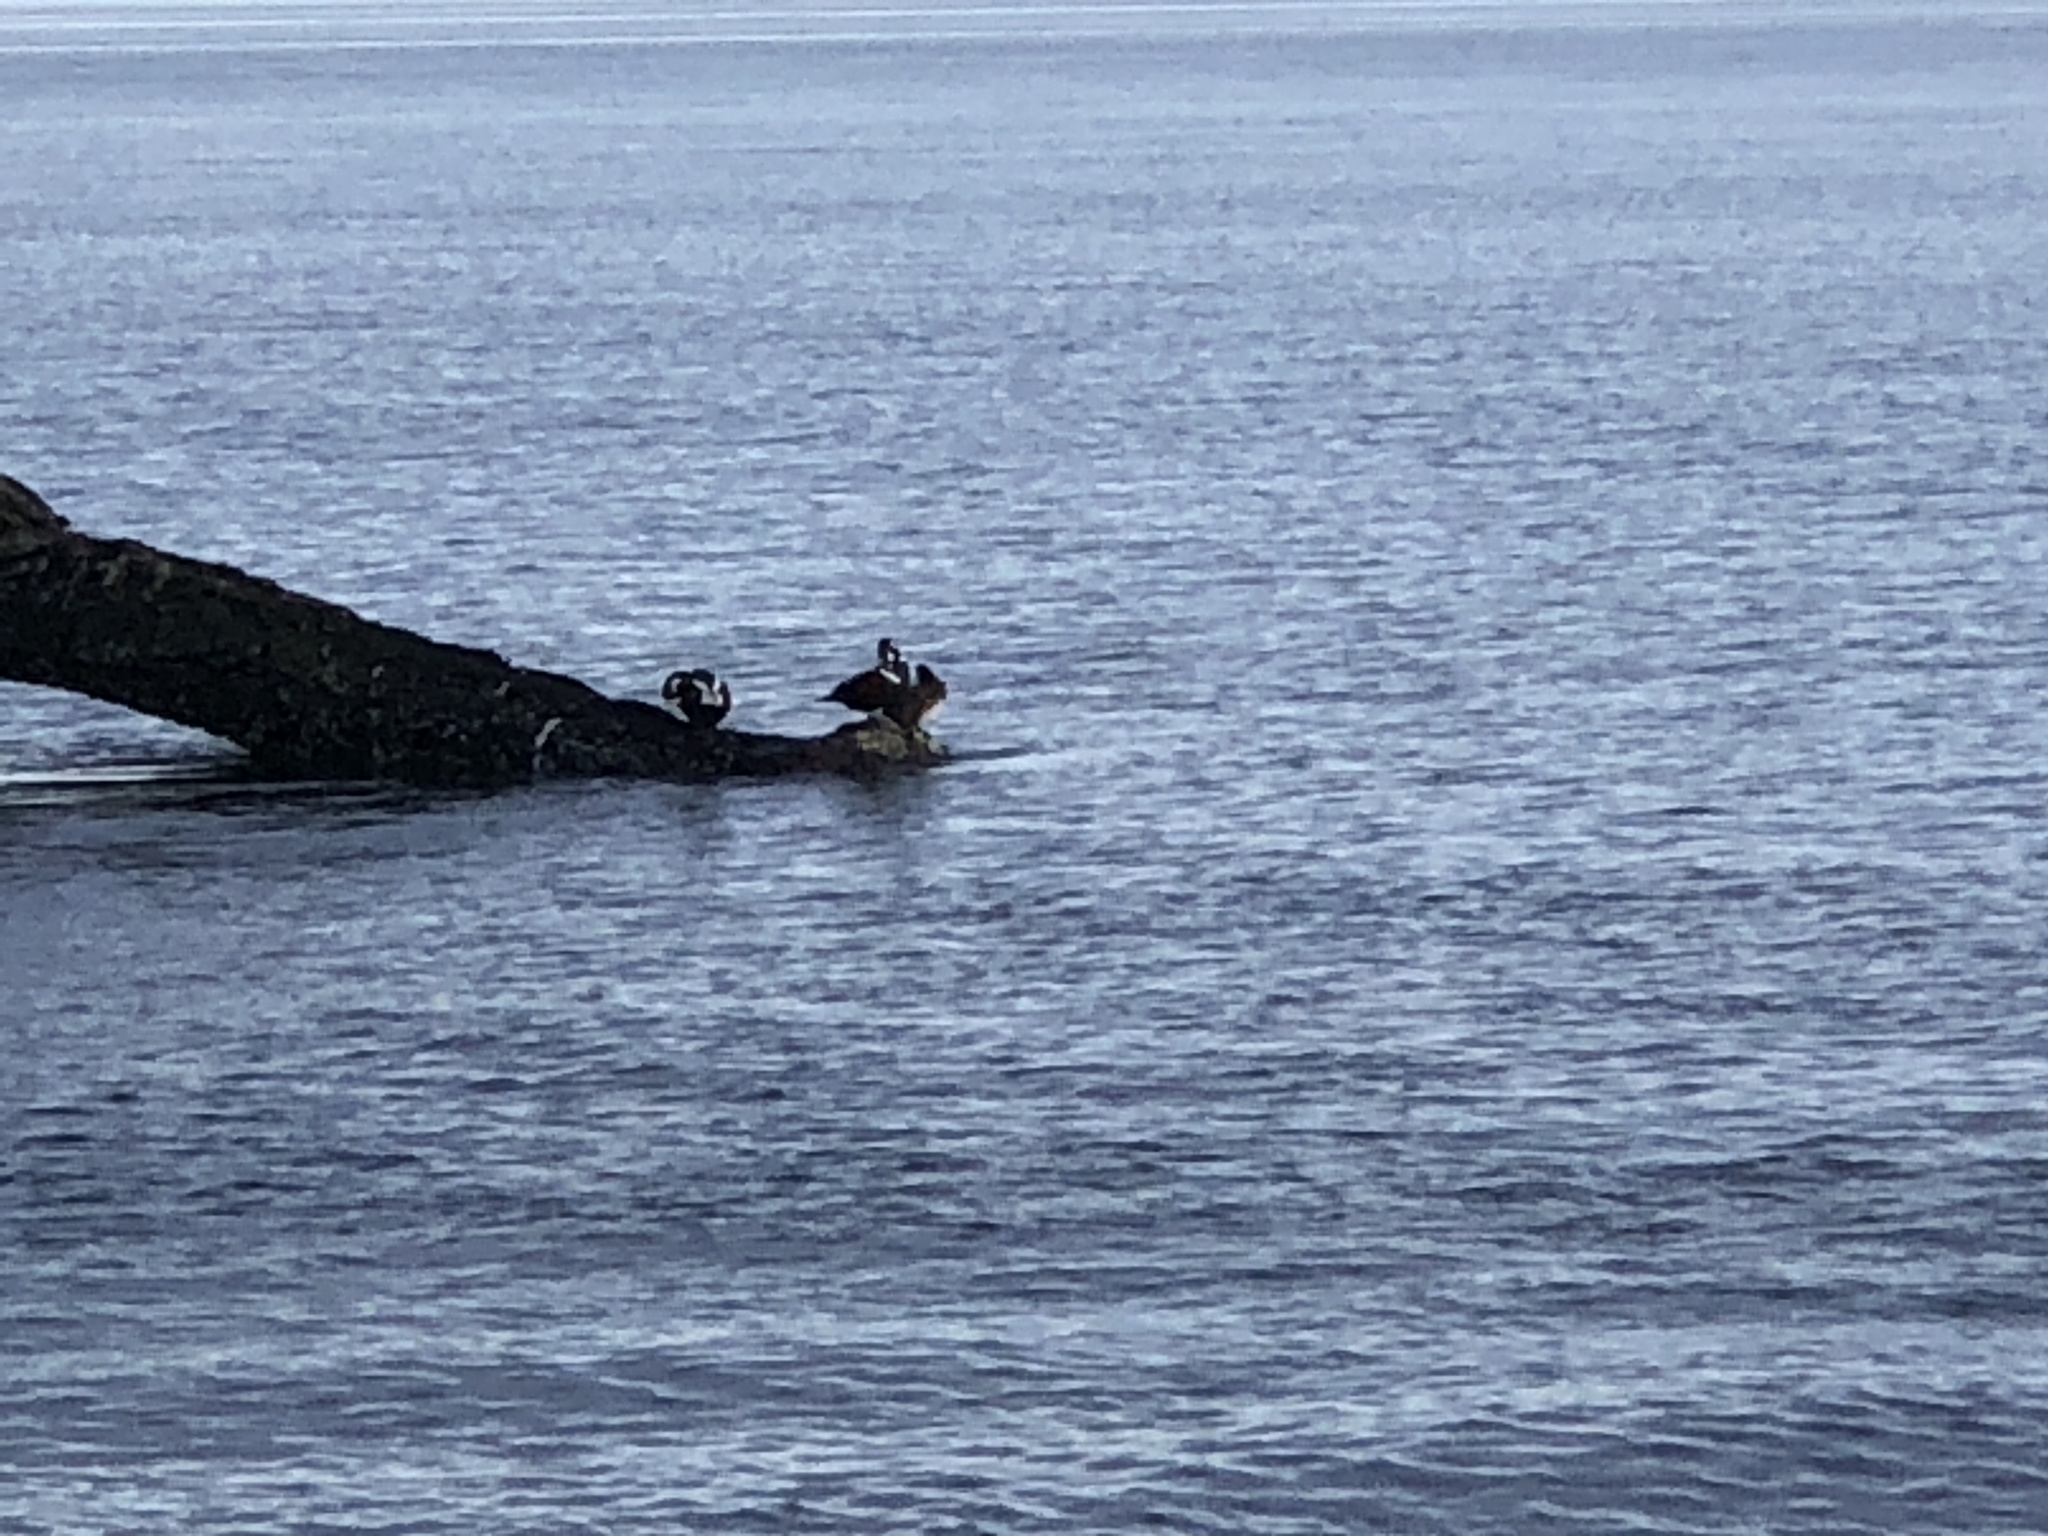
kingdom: Animalia
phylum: Chordata
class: Aves
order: Anseriformes
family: Anatidae
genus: Histrionicus
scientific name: Histrionicus histrionicus
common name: Harlequin duck
